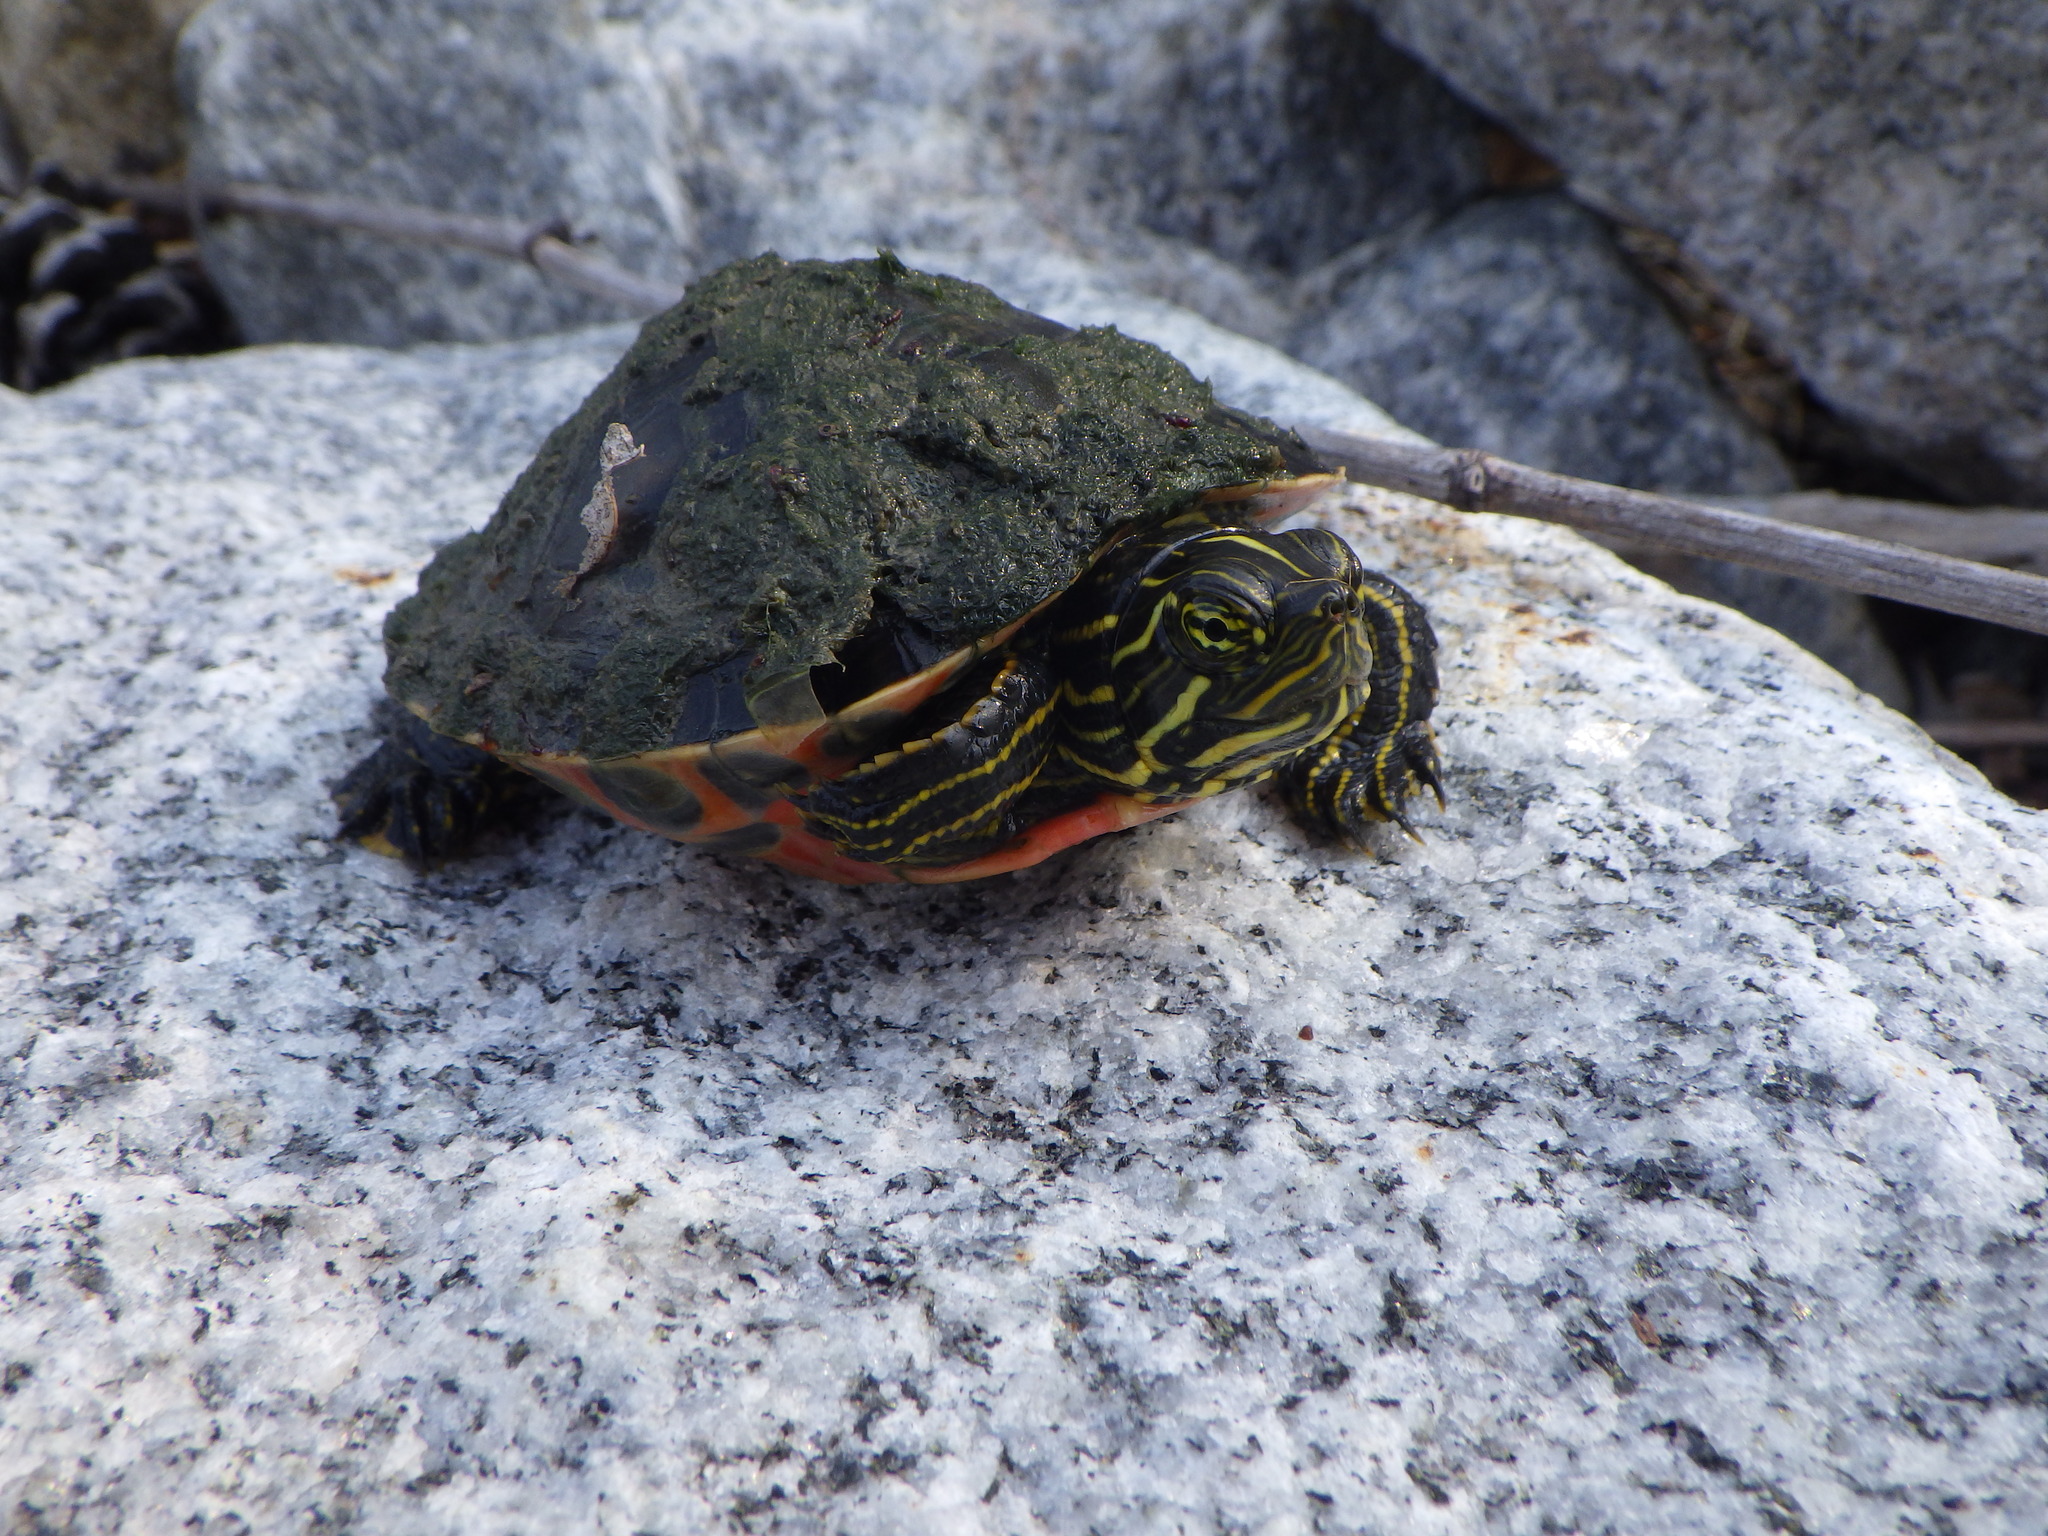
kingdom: Animalia
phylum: Chordata
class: Testudines
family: Emydidae
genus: Pseudemys
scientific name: Pseudemys rubriventris
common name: American red-bellied turtle
